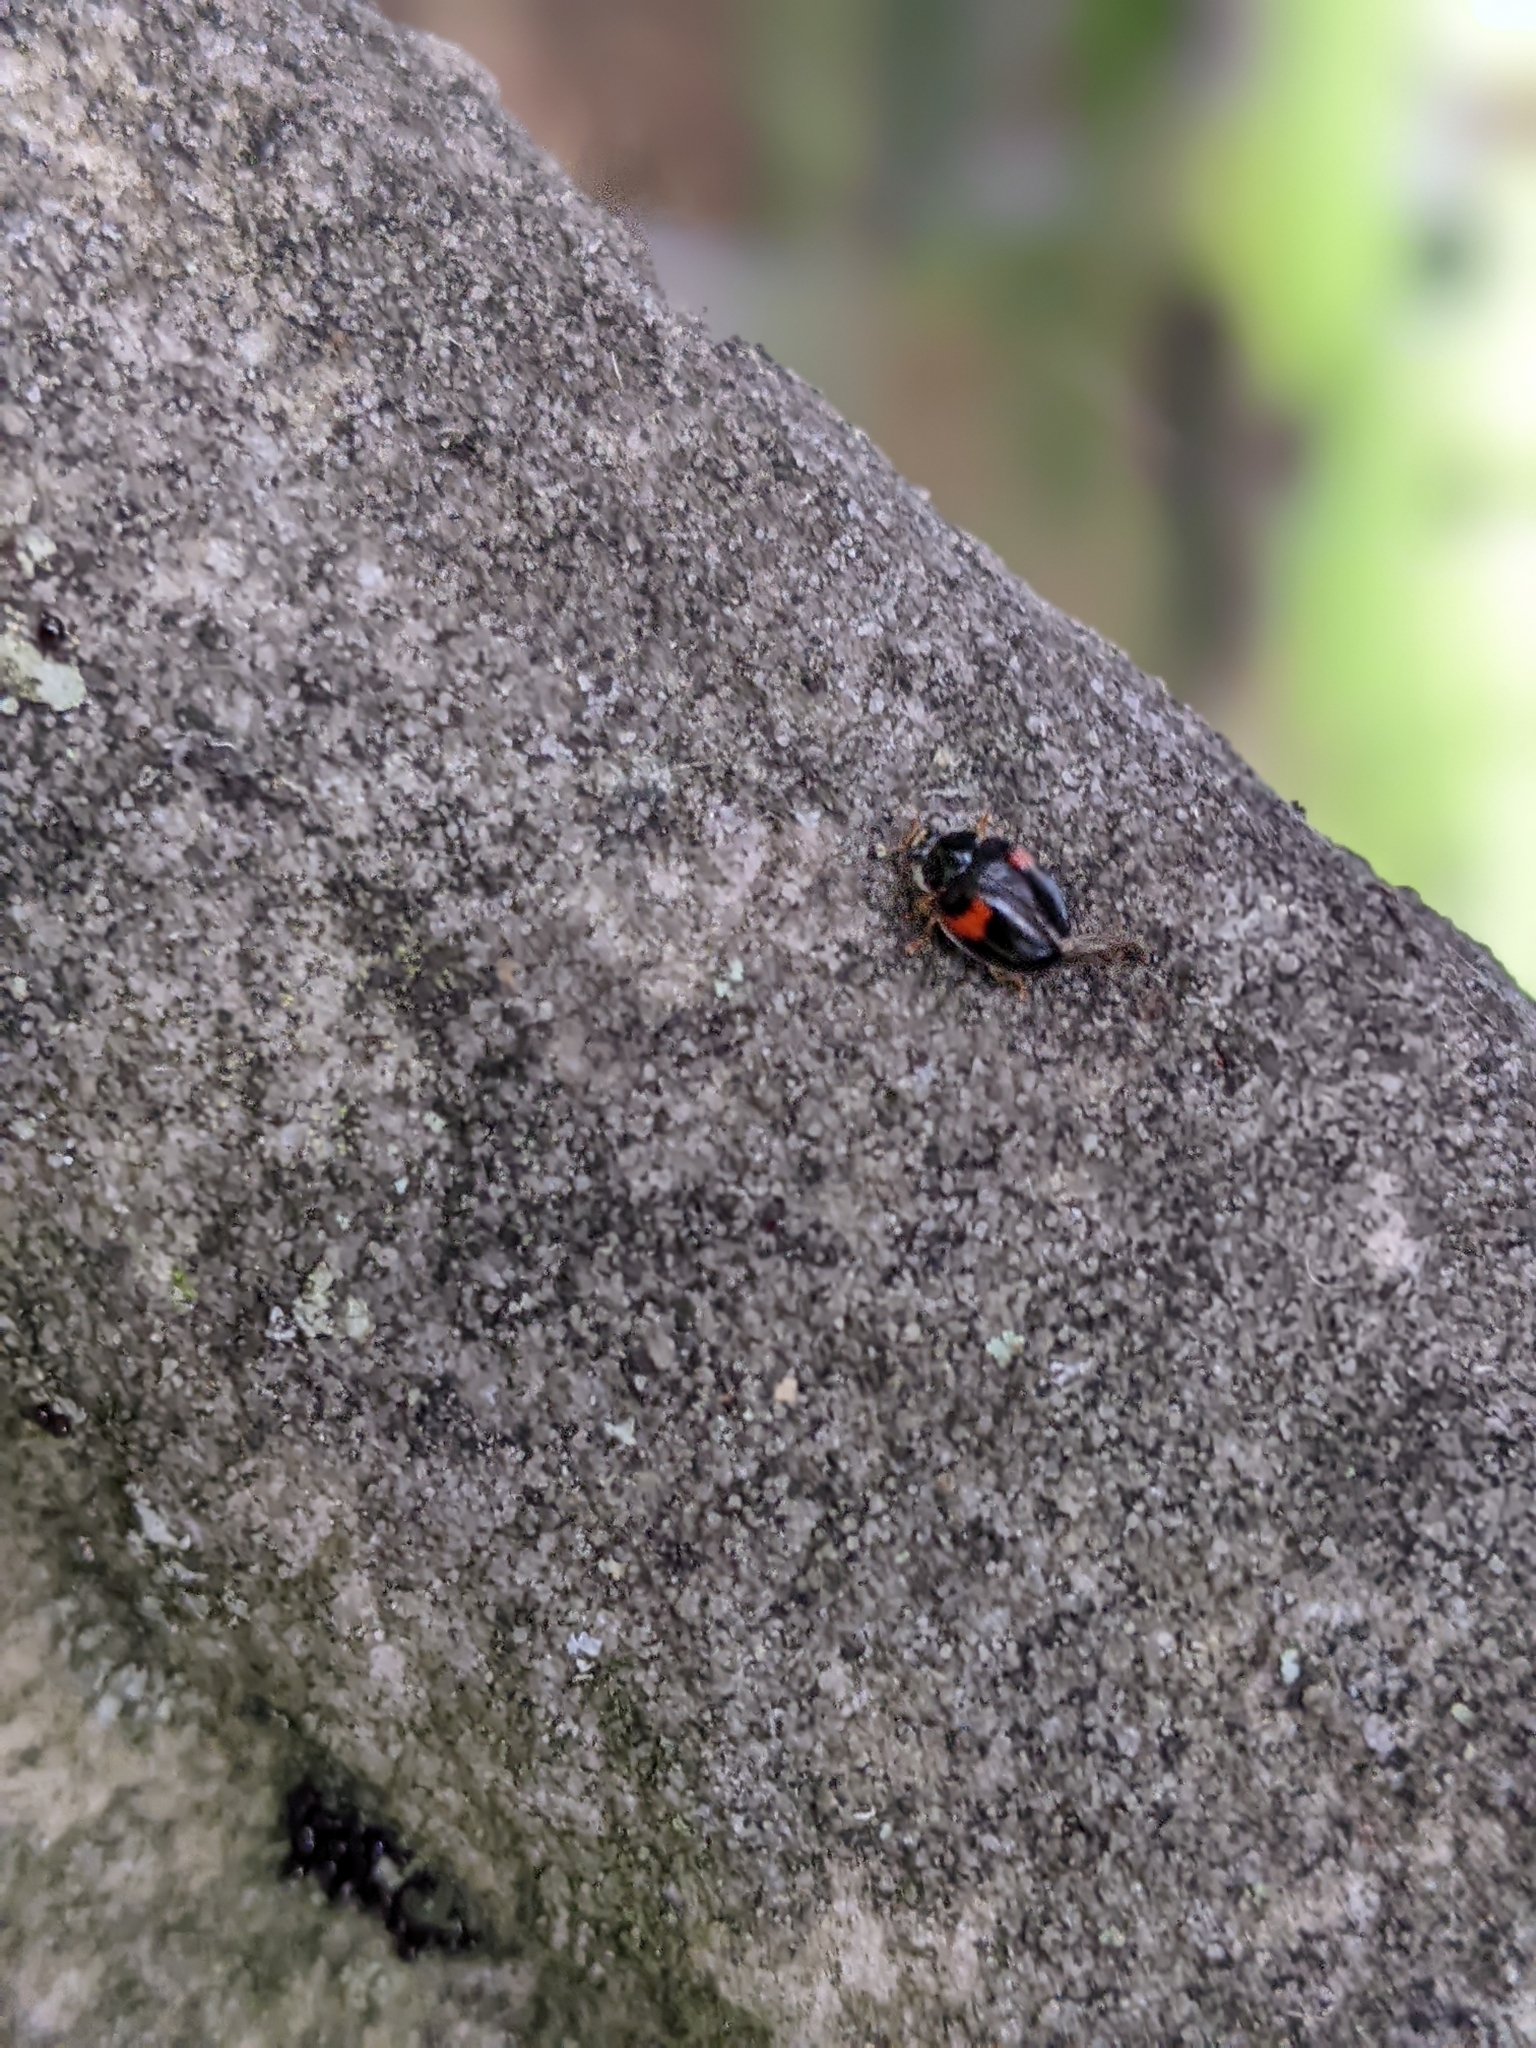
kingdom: Animalia
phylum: Arthropoda
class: Insecta
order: Coleoptera
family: Coccinellidae
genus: Adalia
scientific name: Adalia decempunctata
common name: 10-spot ladybird
